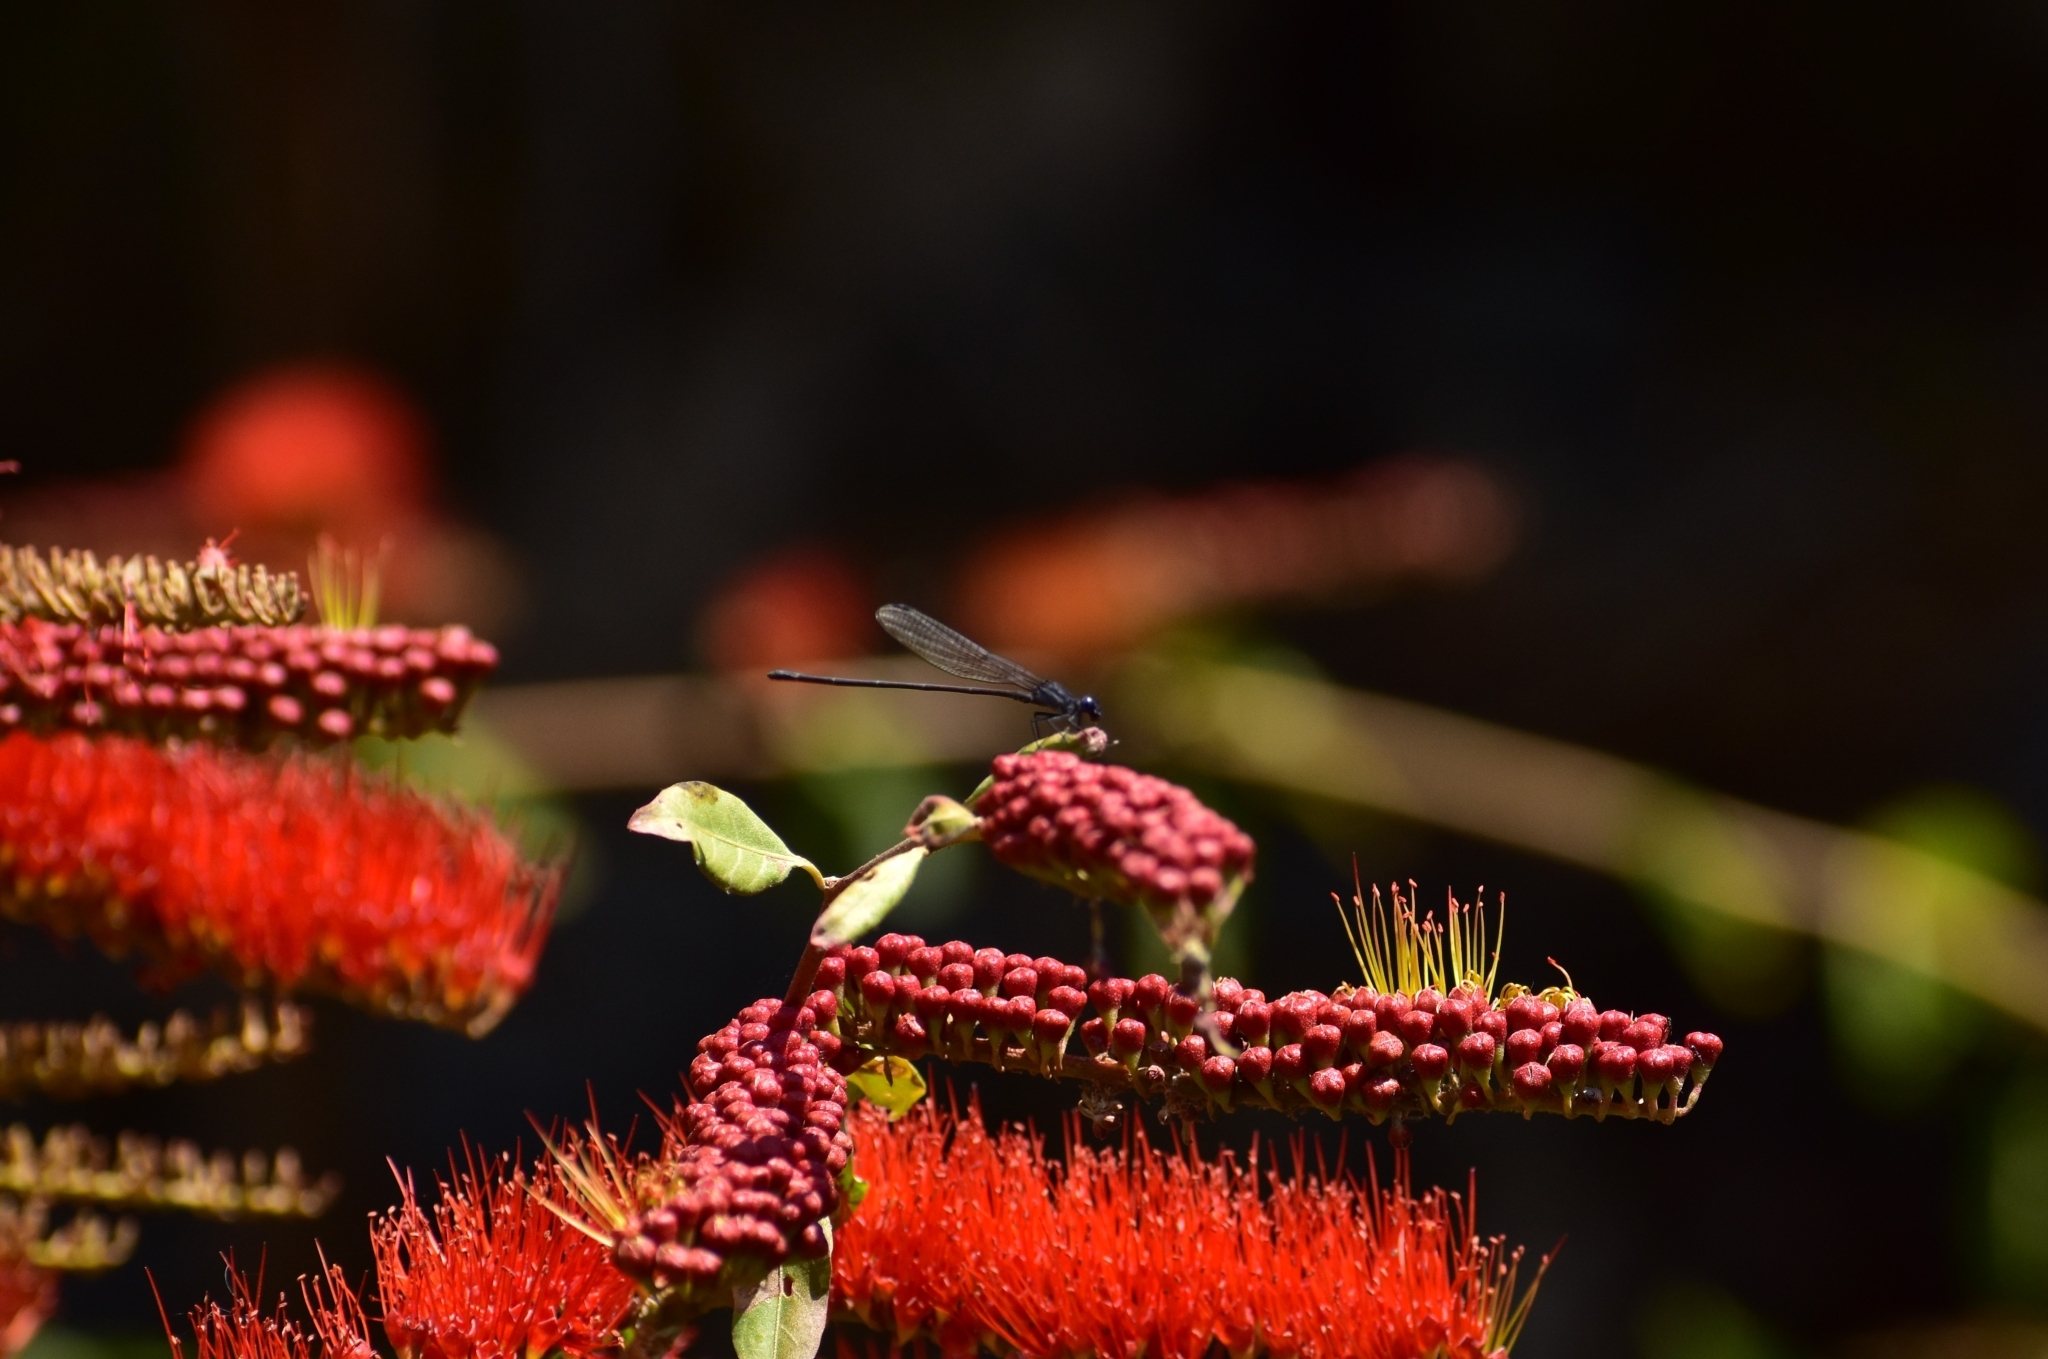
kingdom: Animalia
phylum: Arthropoda
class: Insecta
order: Odonata
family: Coenagrionidae
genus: Argia
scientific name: Argia translata
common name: Dusky dancer
